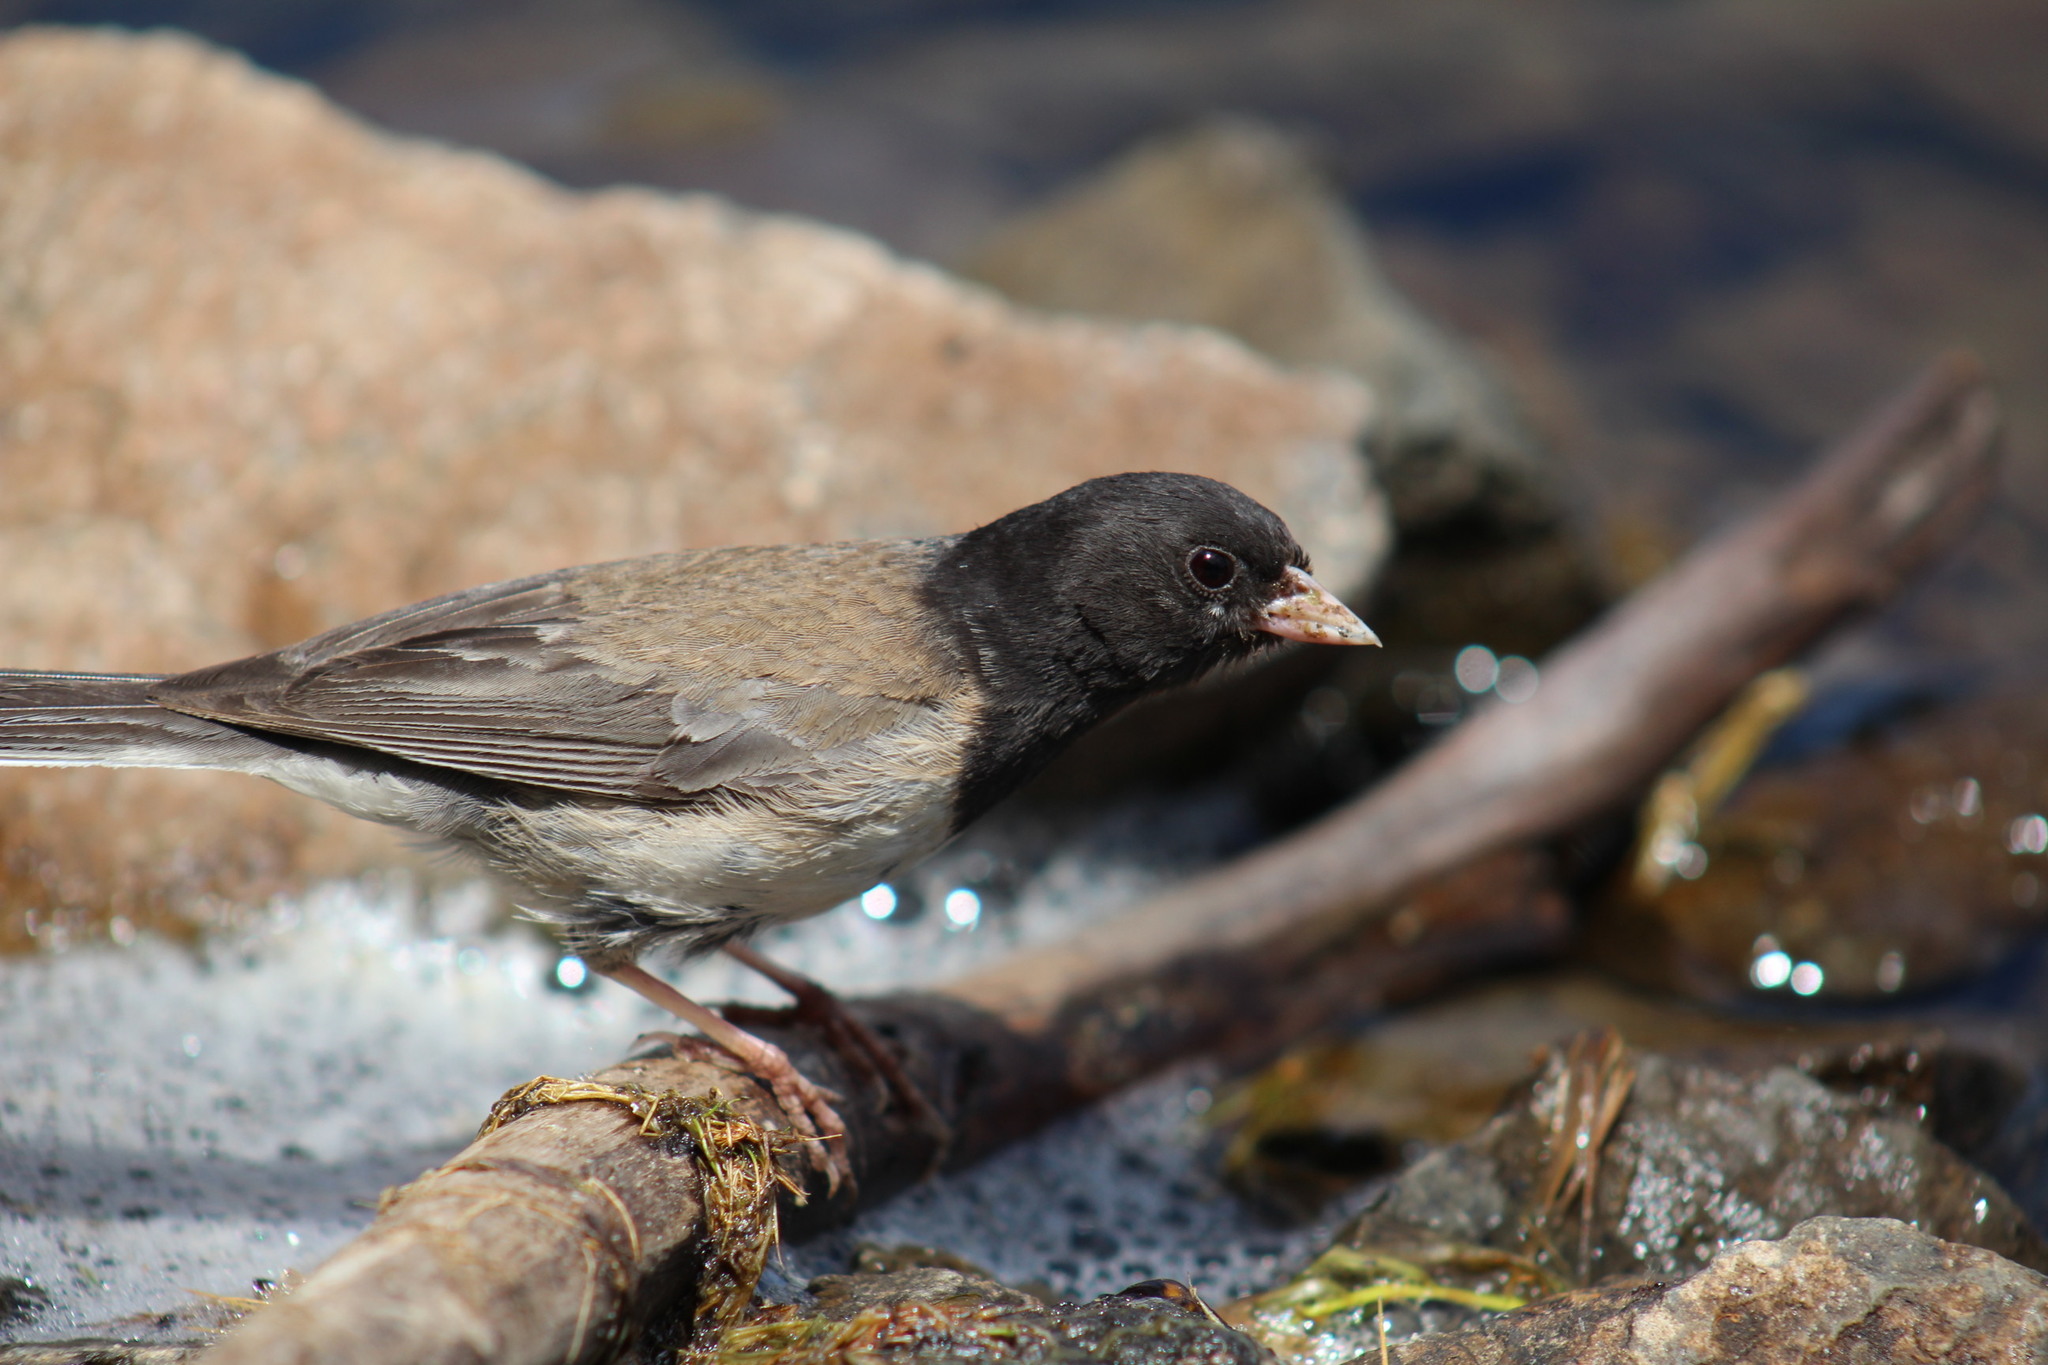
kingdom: Animalia
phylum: Chordata
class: Aves
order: Passeriformes
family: Passerellidae
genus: Junco
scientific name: Junco hyemalis
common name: Dark-eyed junco
